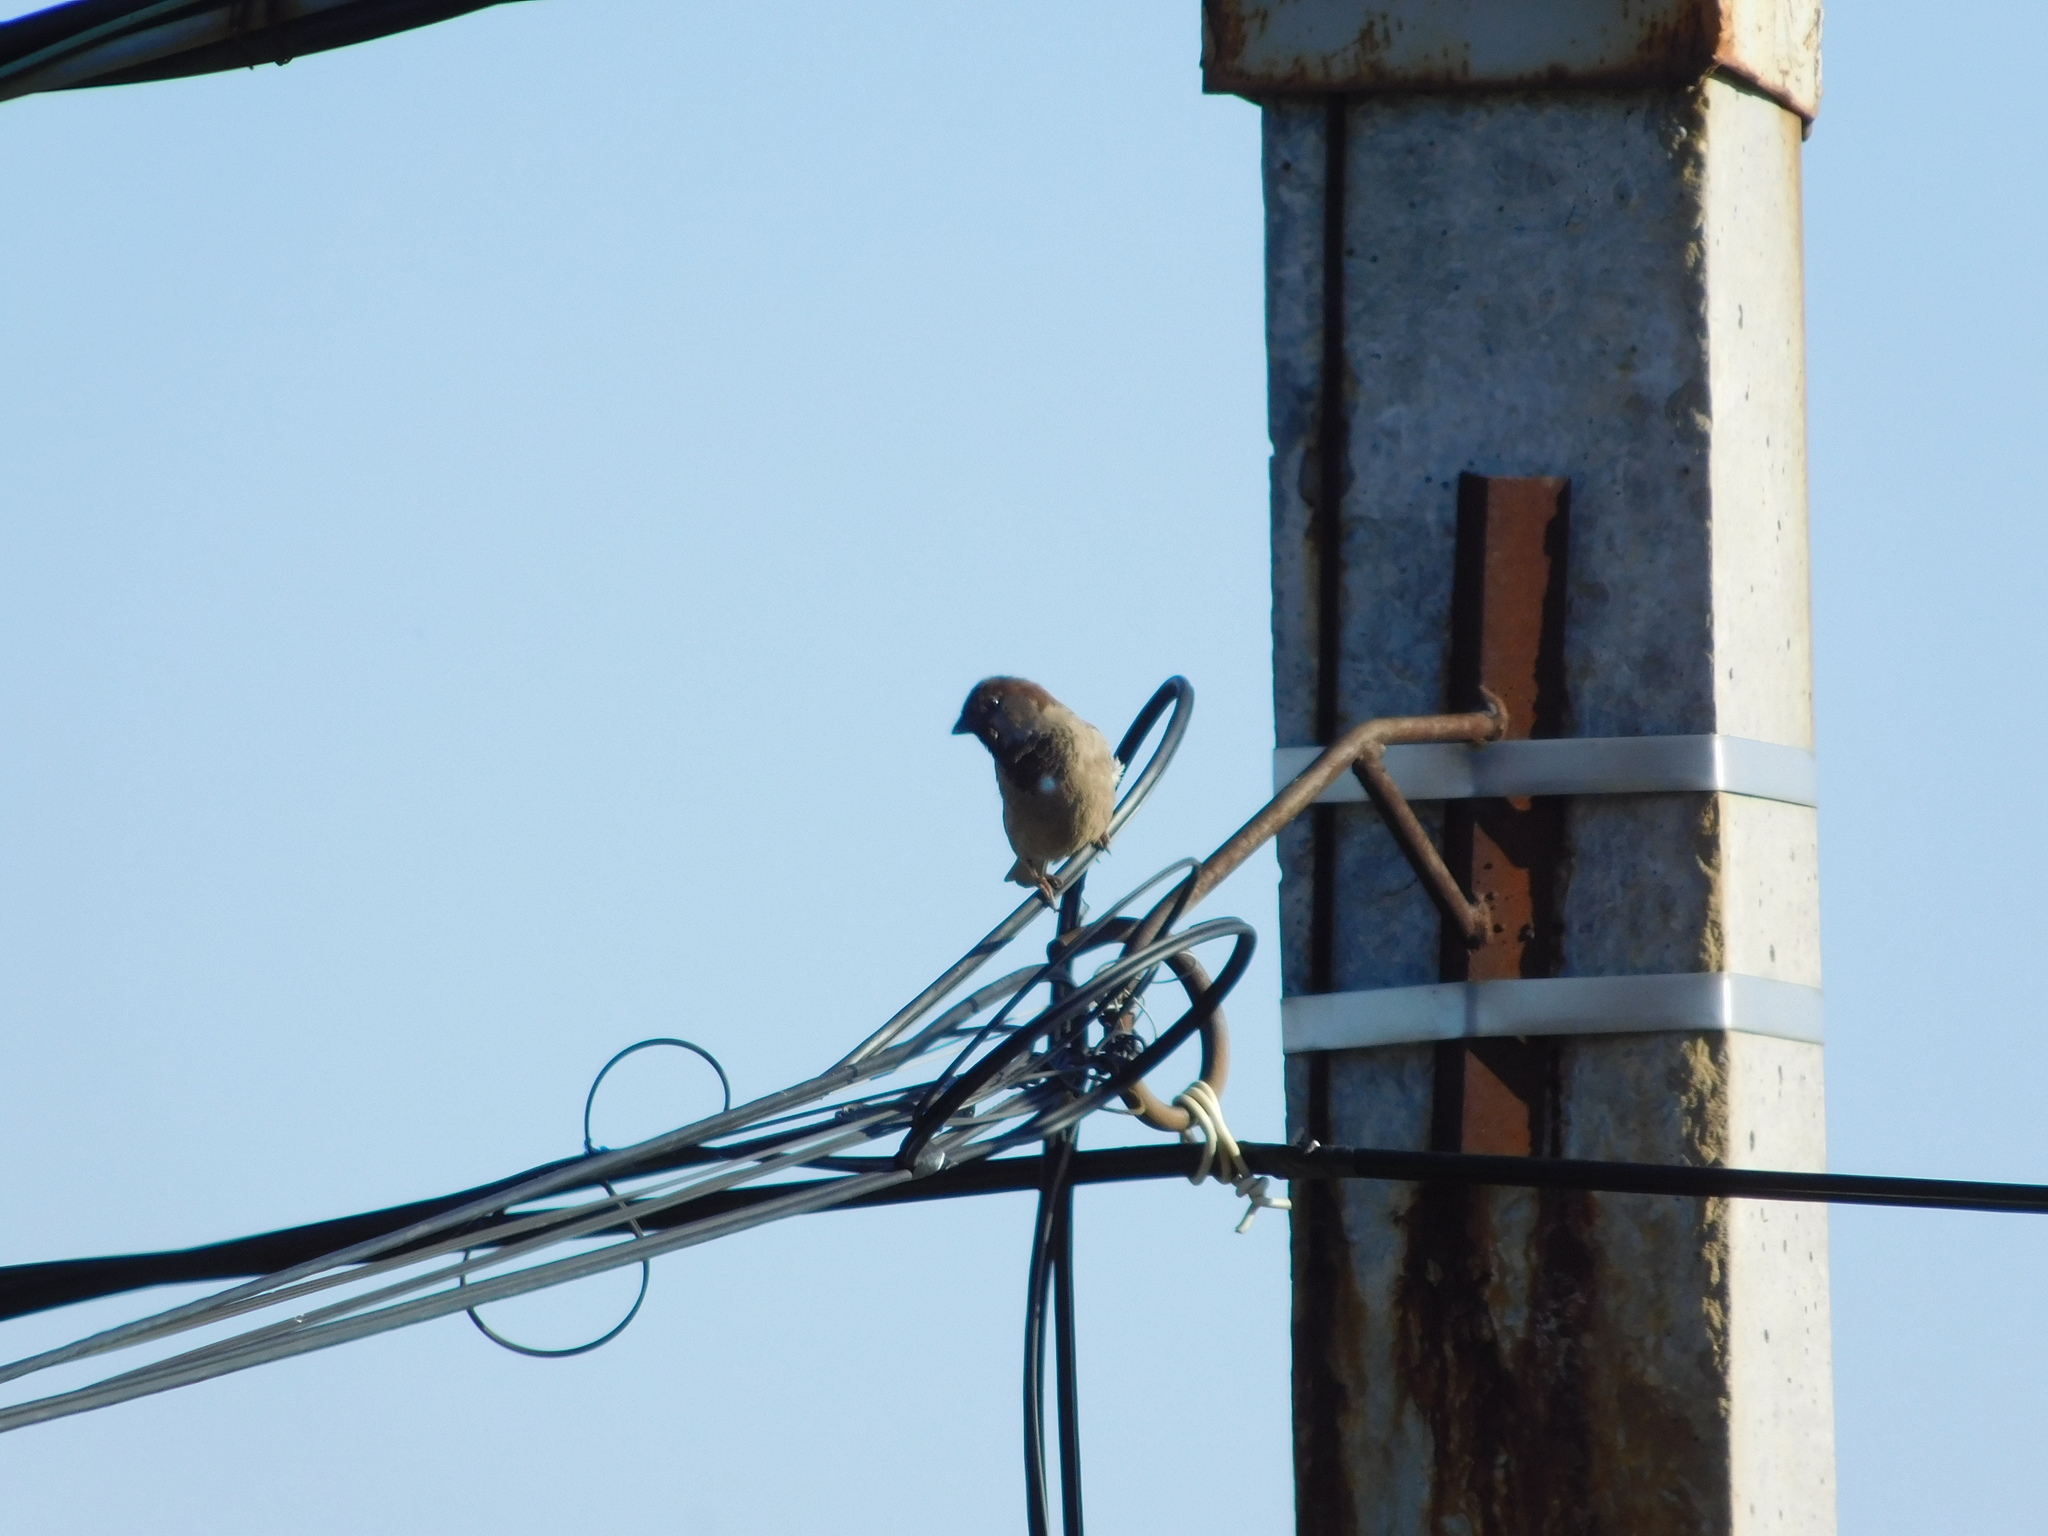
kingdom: Animalia
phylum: Chordata
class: Aves
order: Passeriformes
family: Passeridae
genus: Passer
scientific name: Passer domesticus
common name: House sparrow
